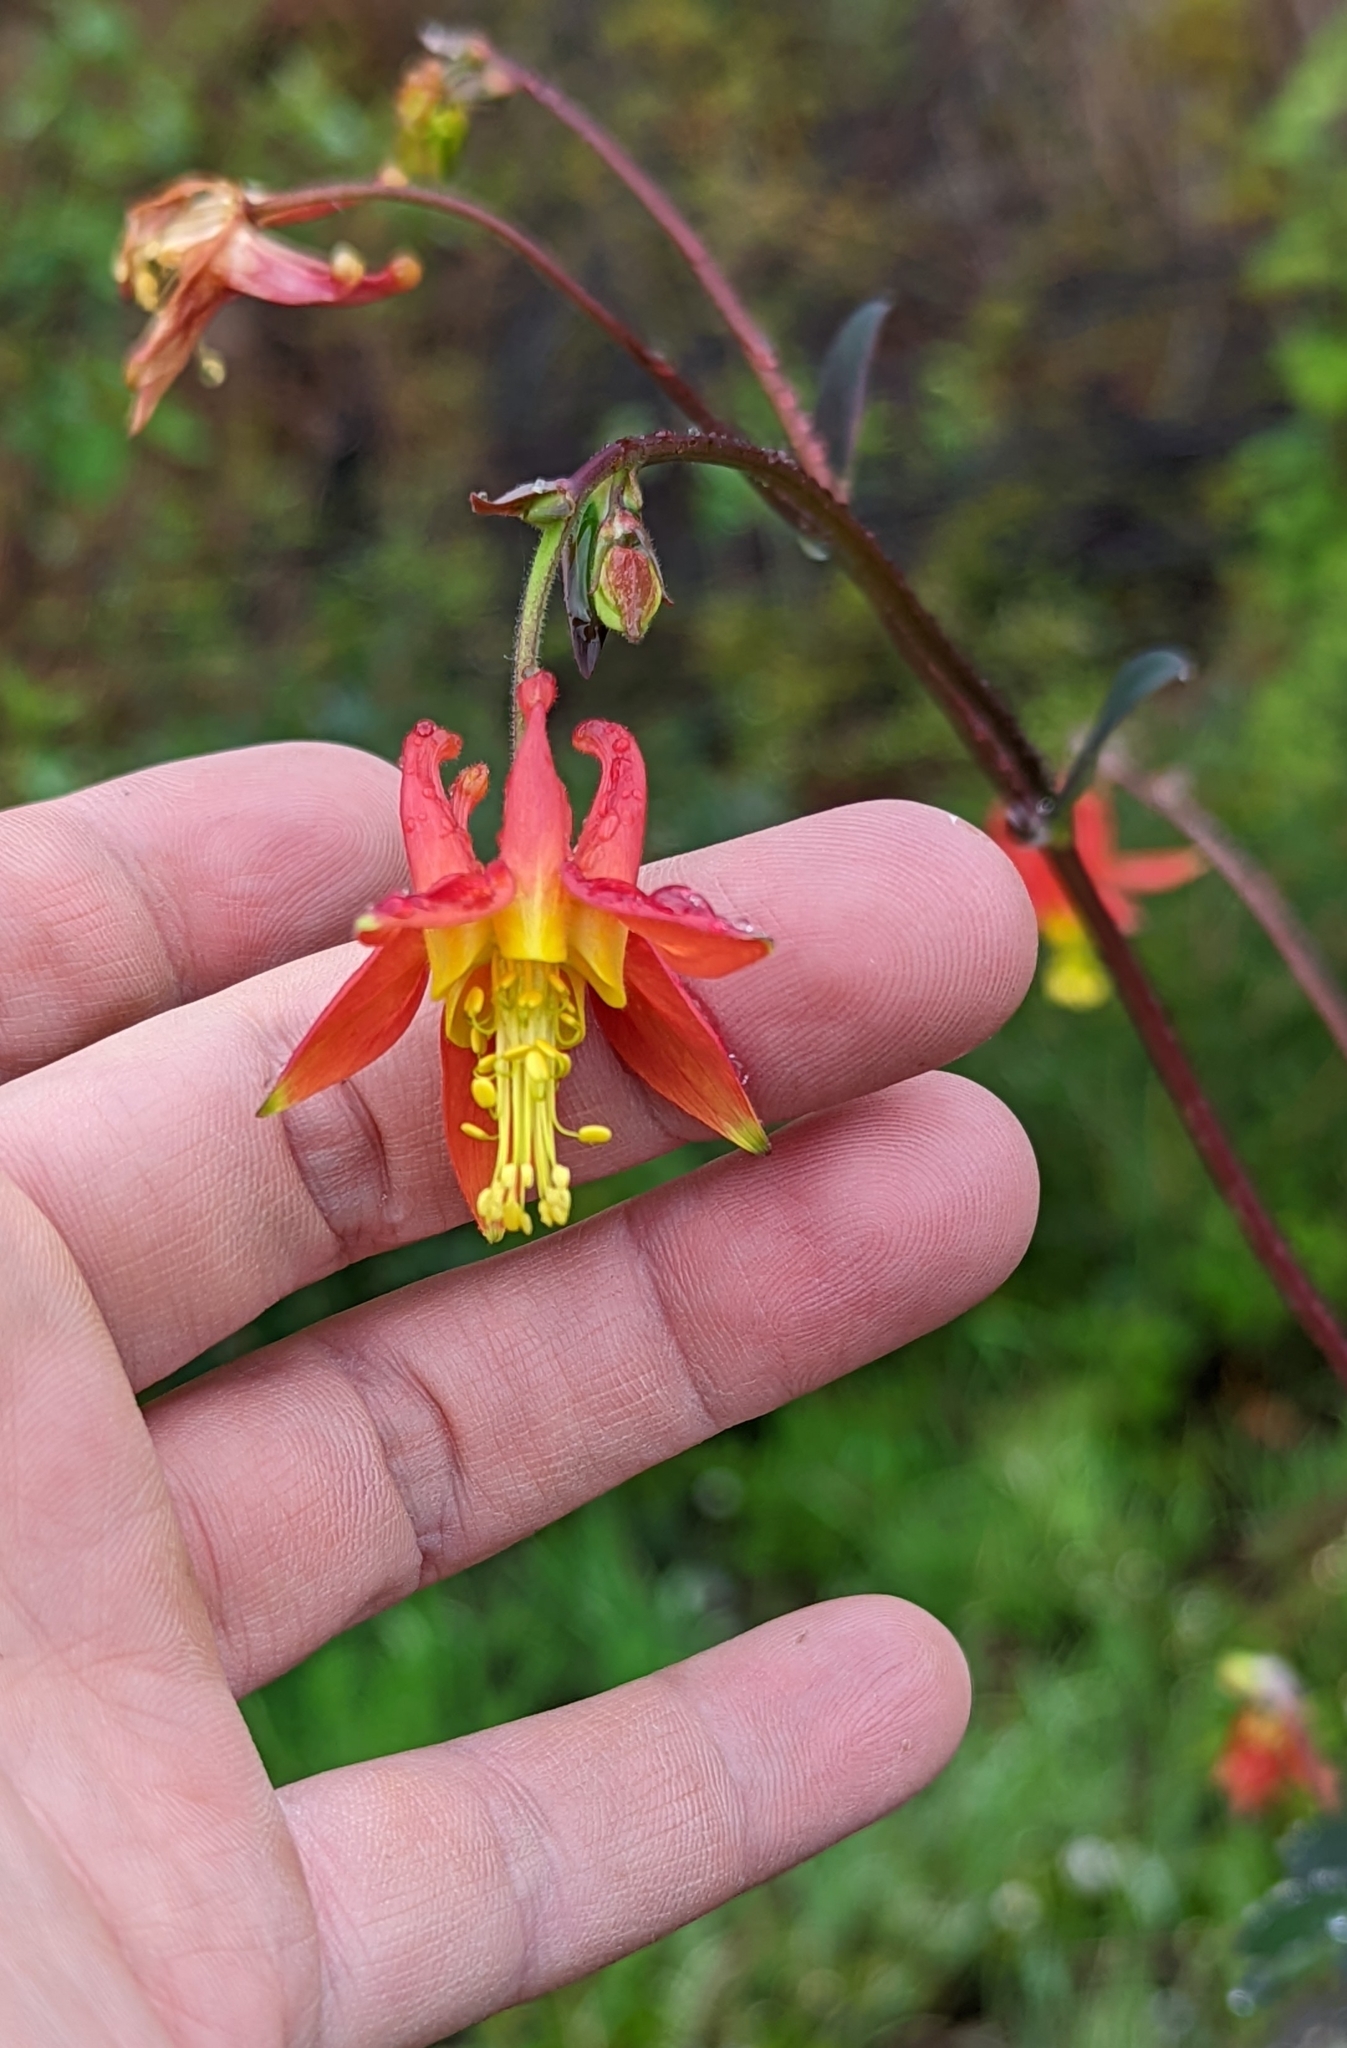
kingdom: Plantae
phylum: Tracheophyta
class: Magnoliopsida
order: Ranunculales
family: Ranunculaceae
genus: Aquilegia
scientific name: Aquilegia formosa
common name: Sitka columbine
